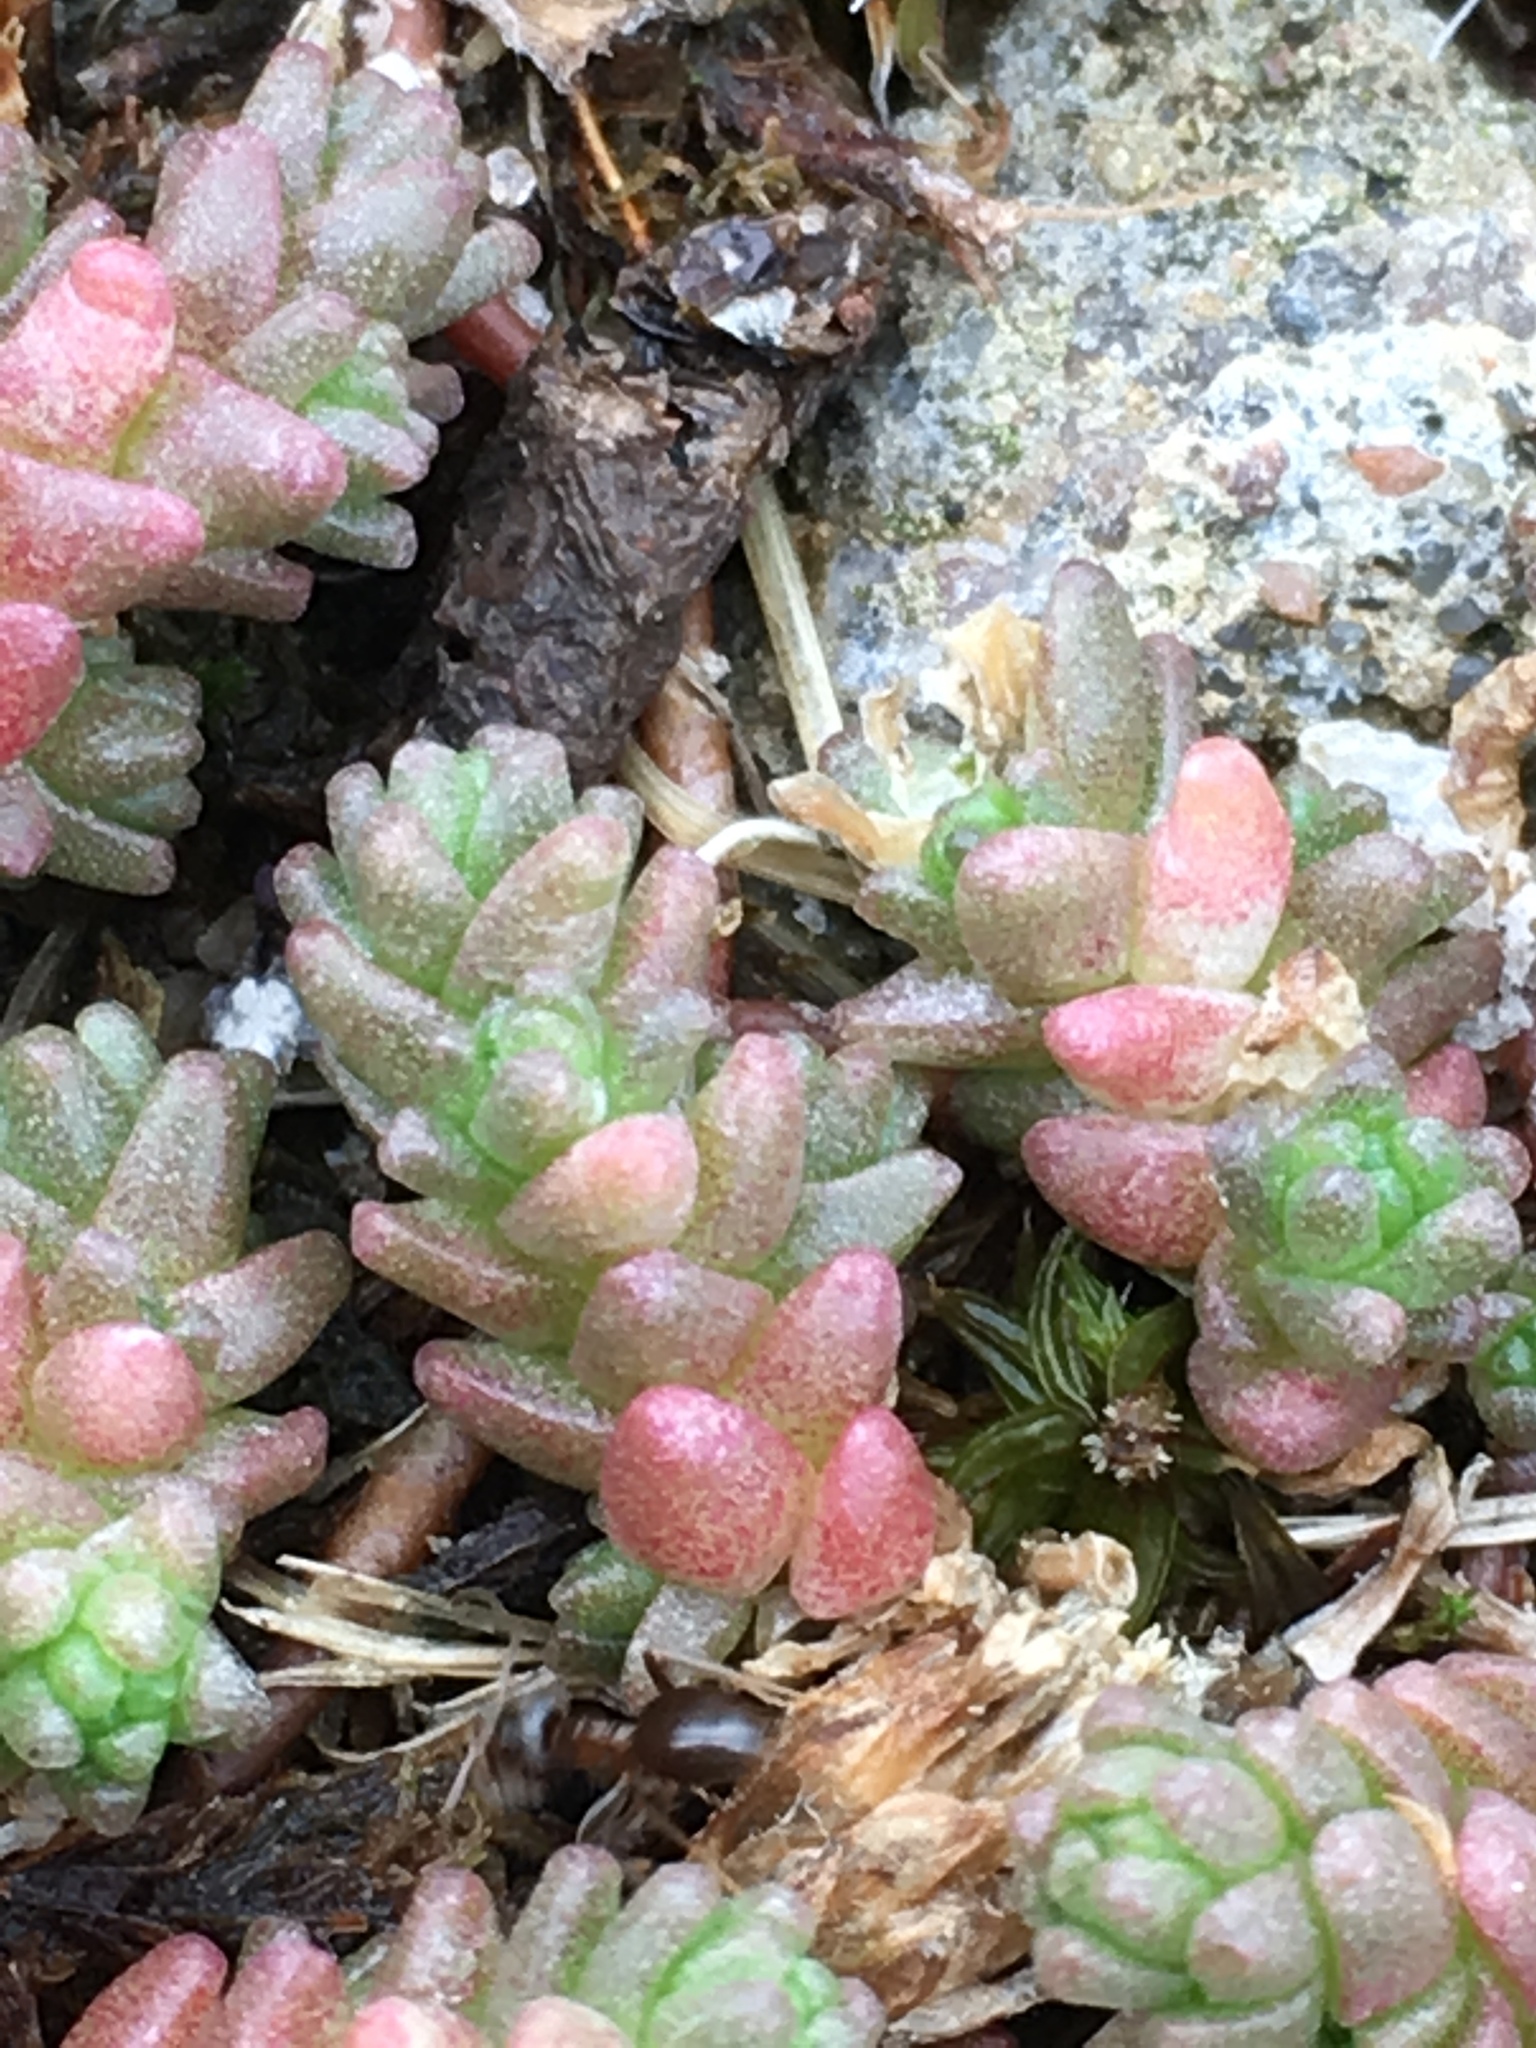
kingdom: Plantae
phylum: Tracheophyta
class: Magnoliopsida
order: Saxifragales
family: Crassulaceae
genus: Sedum
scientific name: Sedum acre
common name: Biting stonecrop
